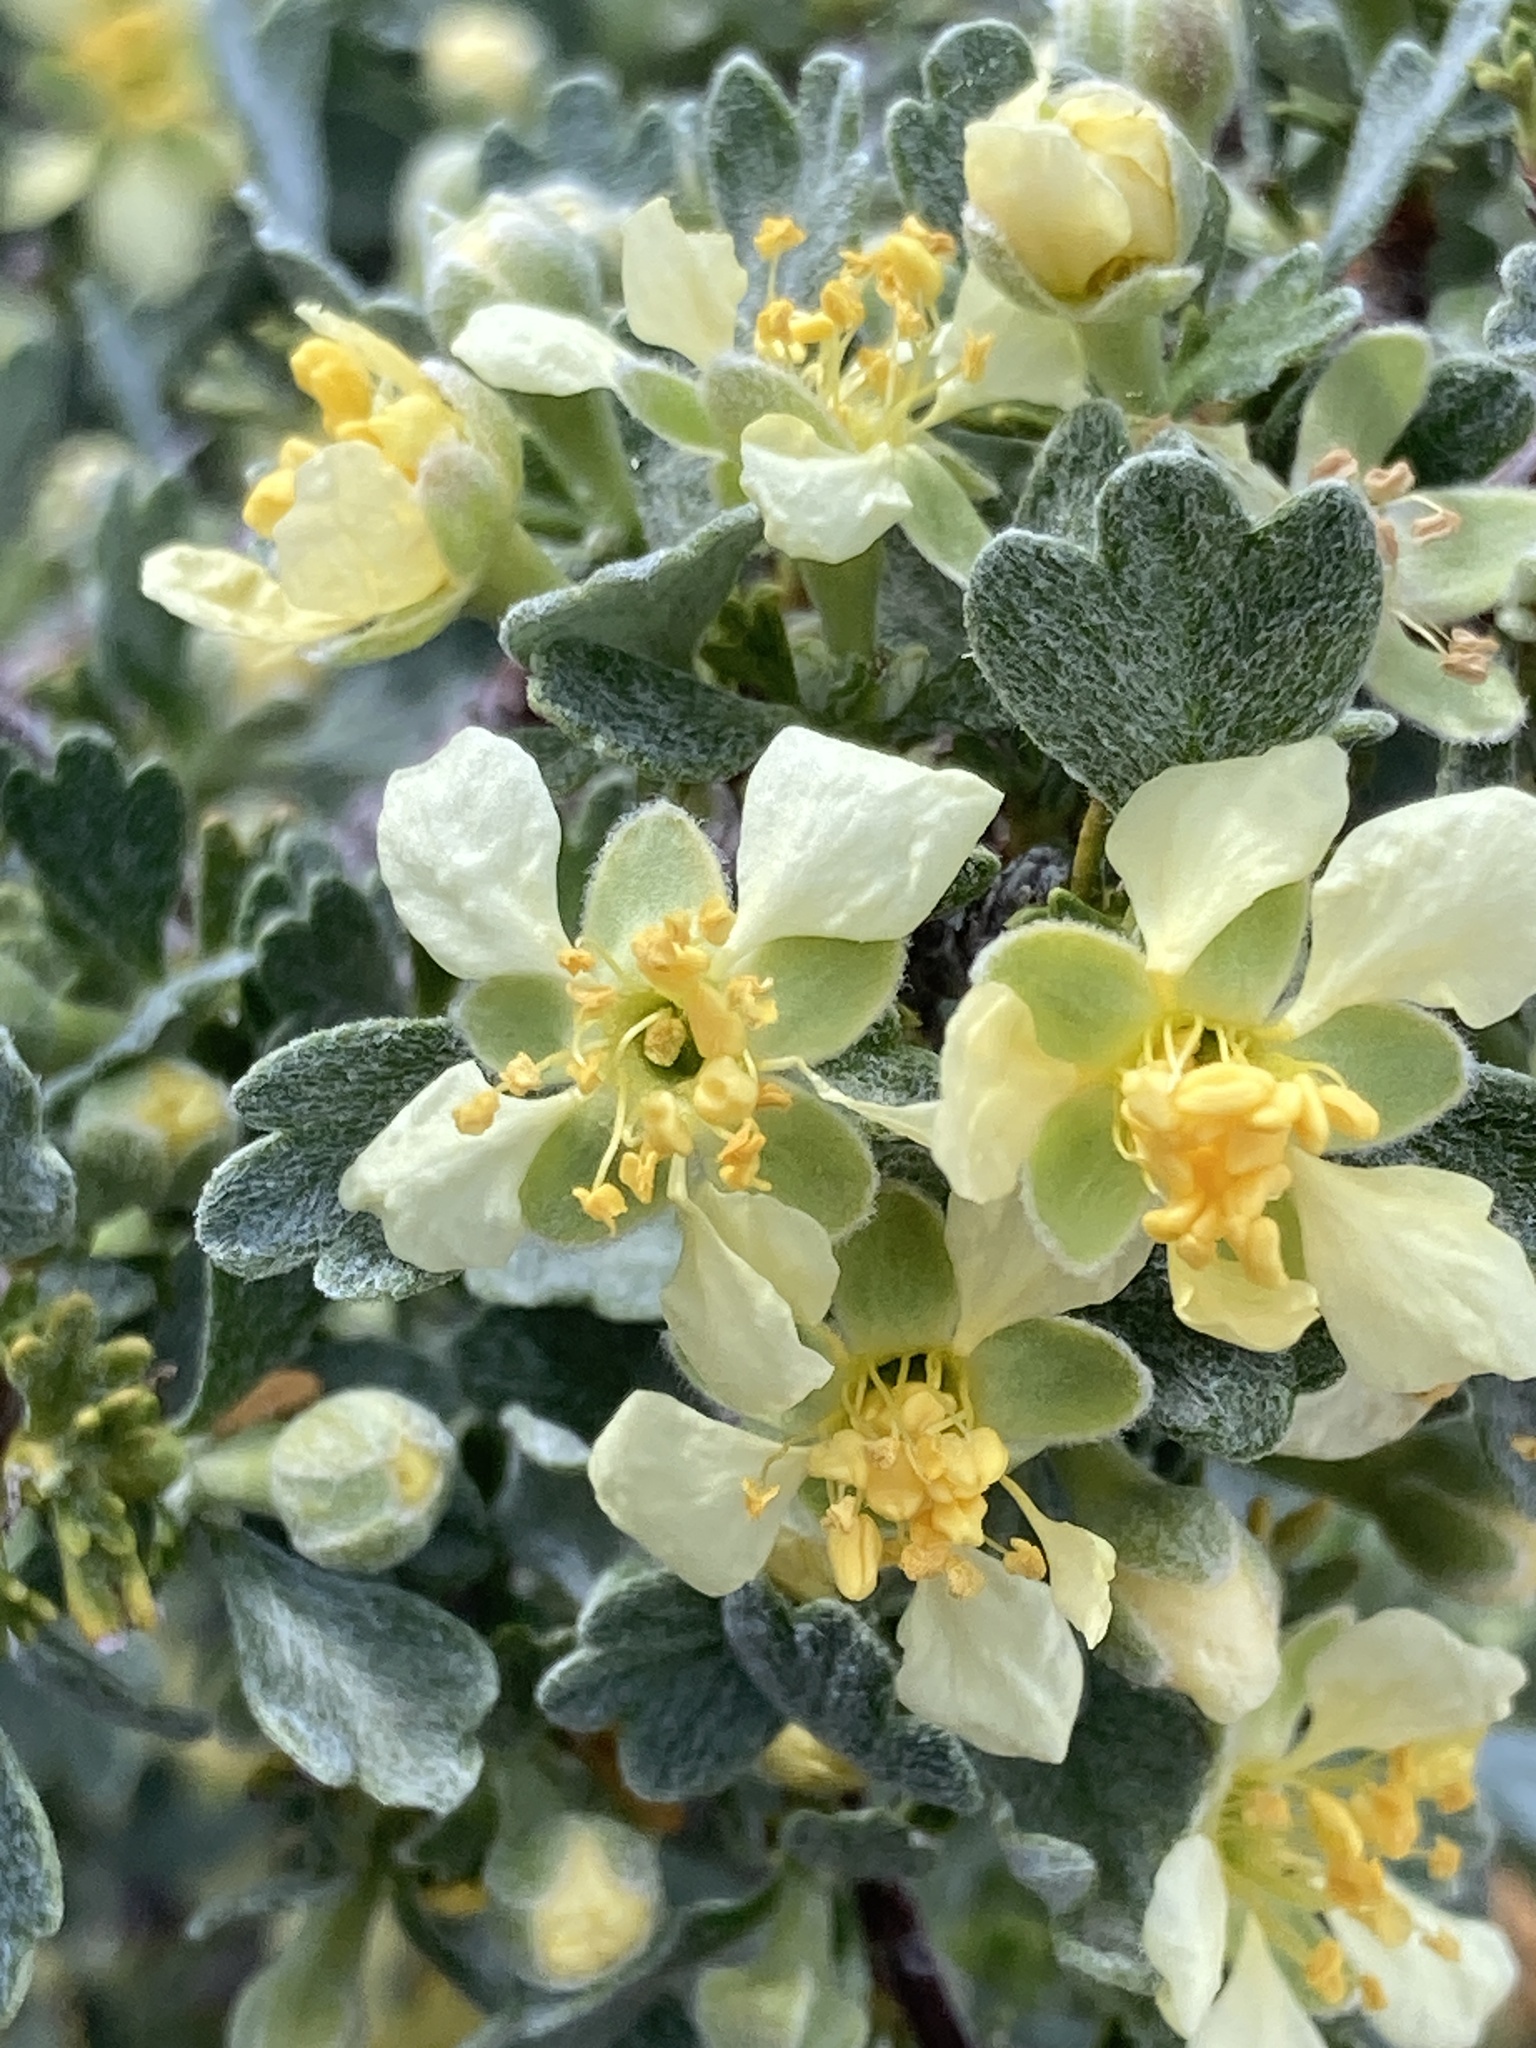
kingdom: Plantae
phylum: Tracheophyta
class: Magnoliopsida
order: Rosales
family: Rosaceae
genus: Purshia
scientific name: Purshia tridentata
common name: Antelope bitterbrush
